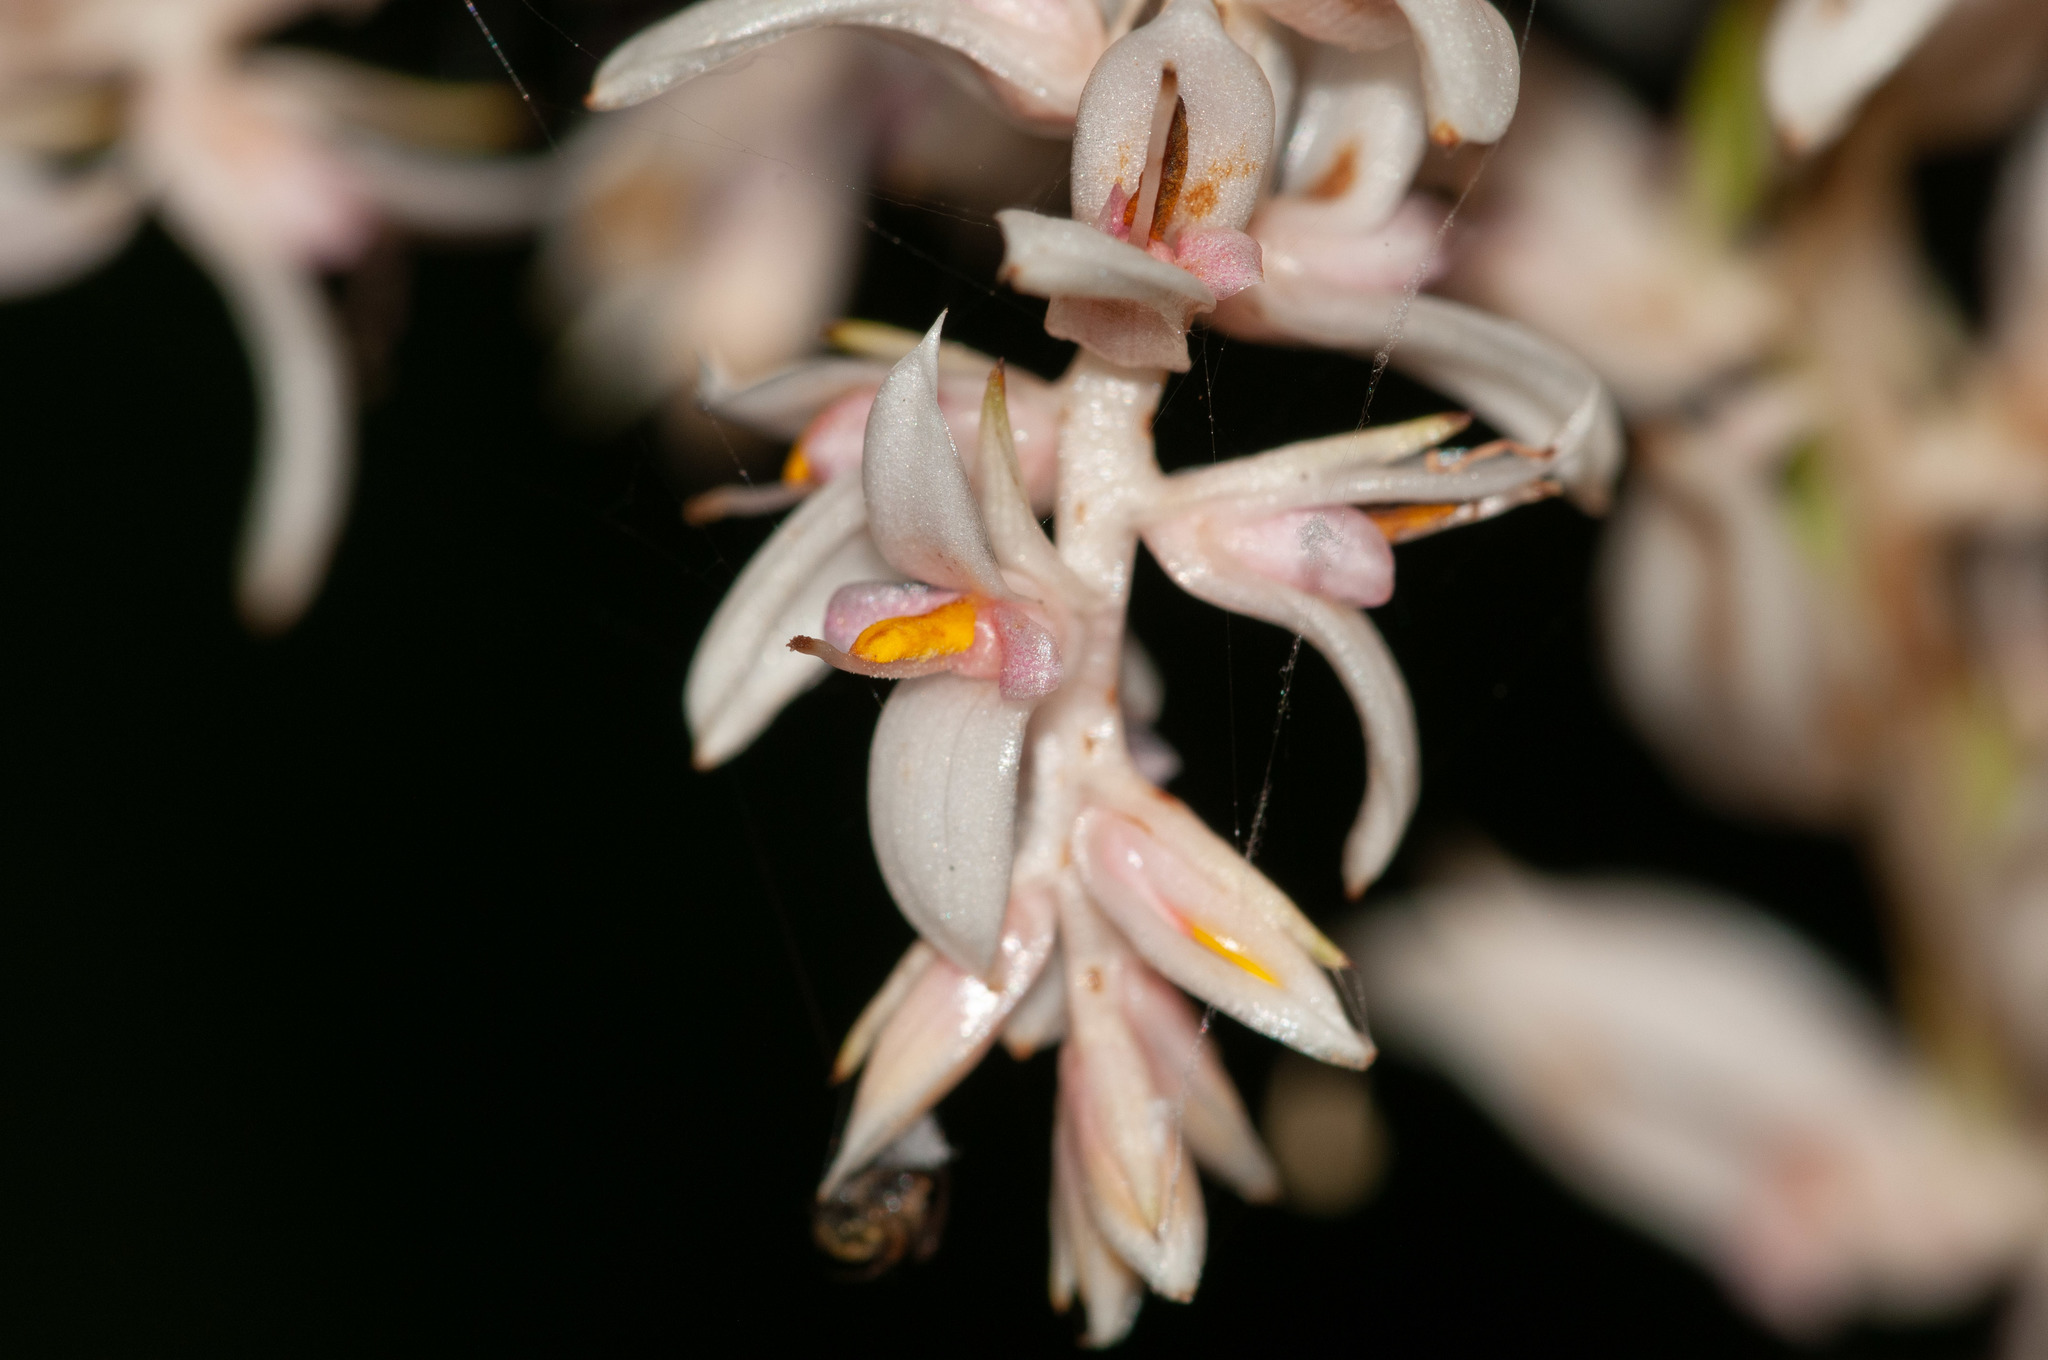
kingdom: Plantae
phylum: Tracheophyta
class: Liliopsida
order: Commelinales
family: Philydraceae
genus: Helmholtzia
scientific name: Helmholtzia glaberrima
